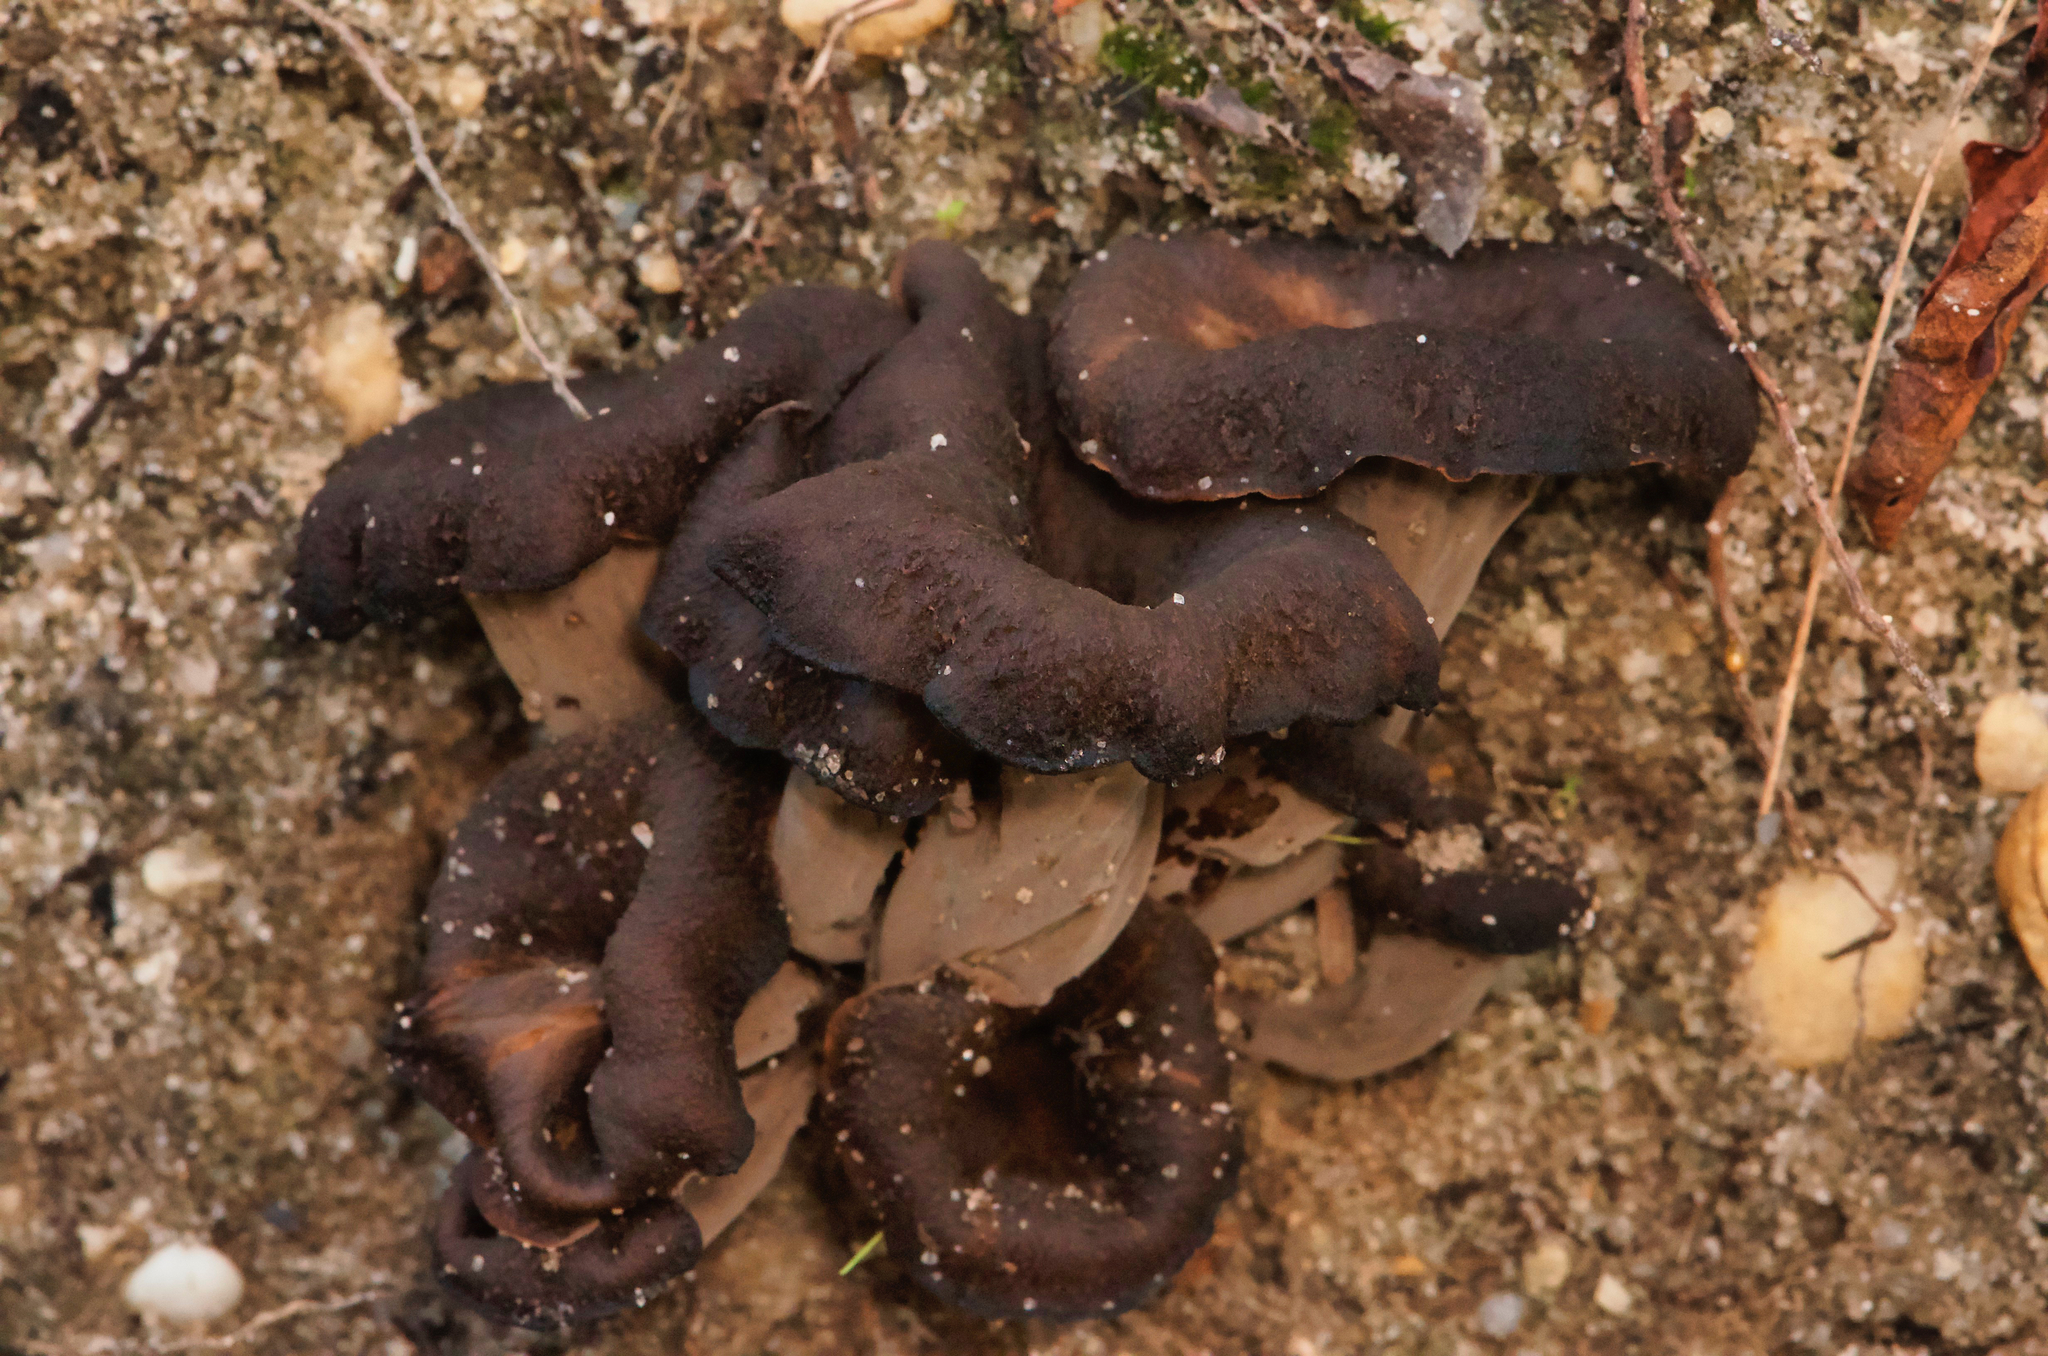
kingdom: Fungi
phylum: Basidiomycota
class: Agaricomycetes
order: Cantharellales
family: Hydnaceae
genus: Craterellus
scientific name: Craterellus cornucopioides
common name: Horn of plenty
